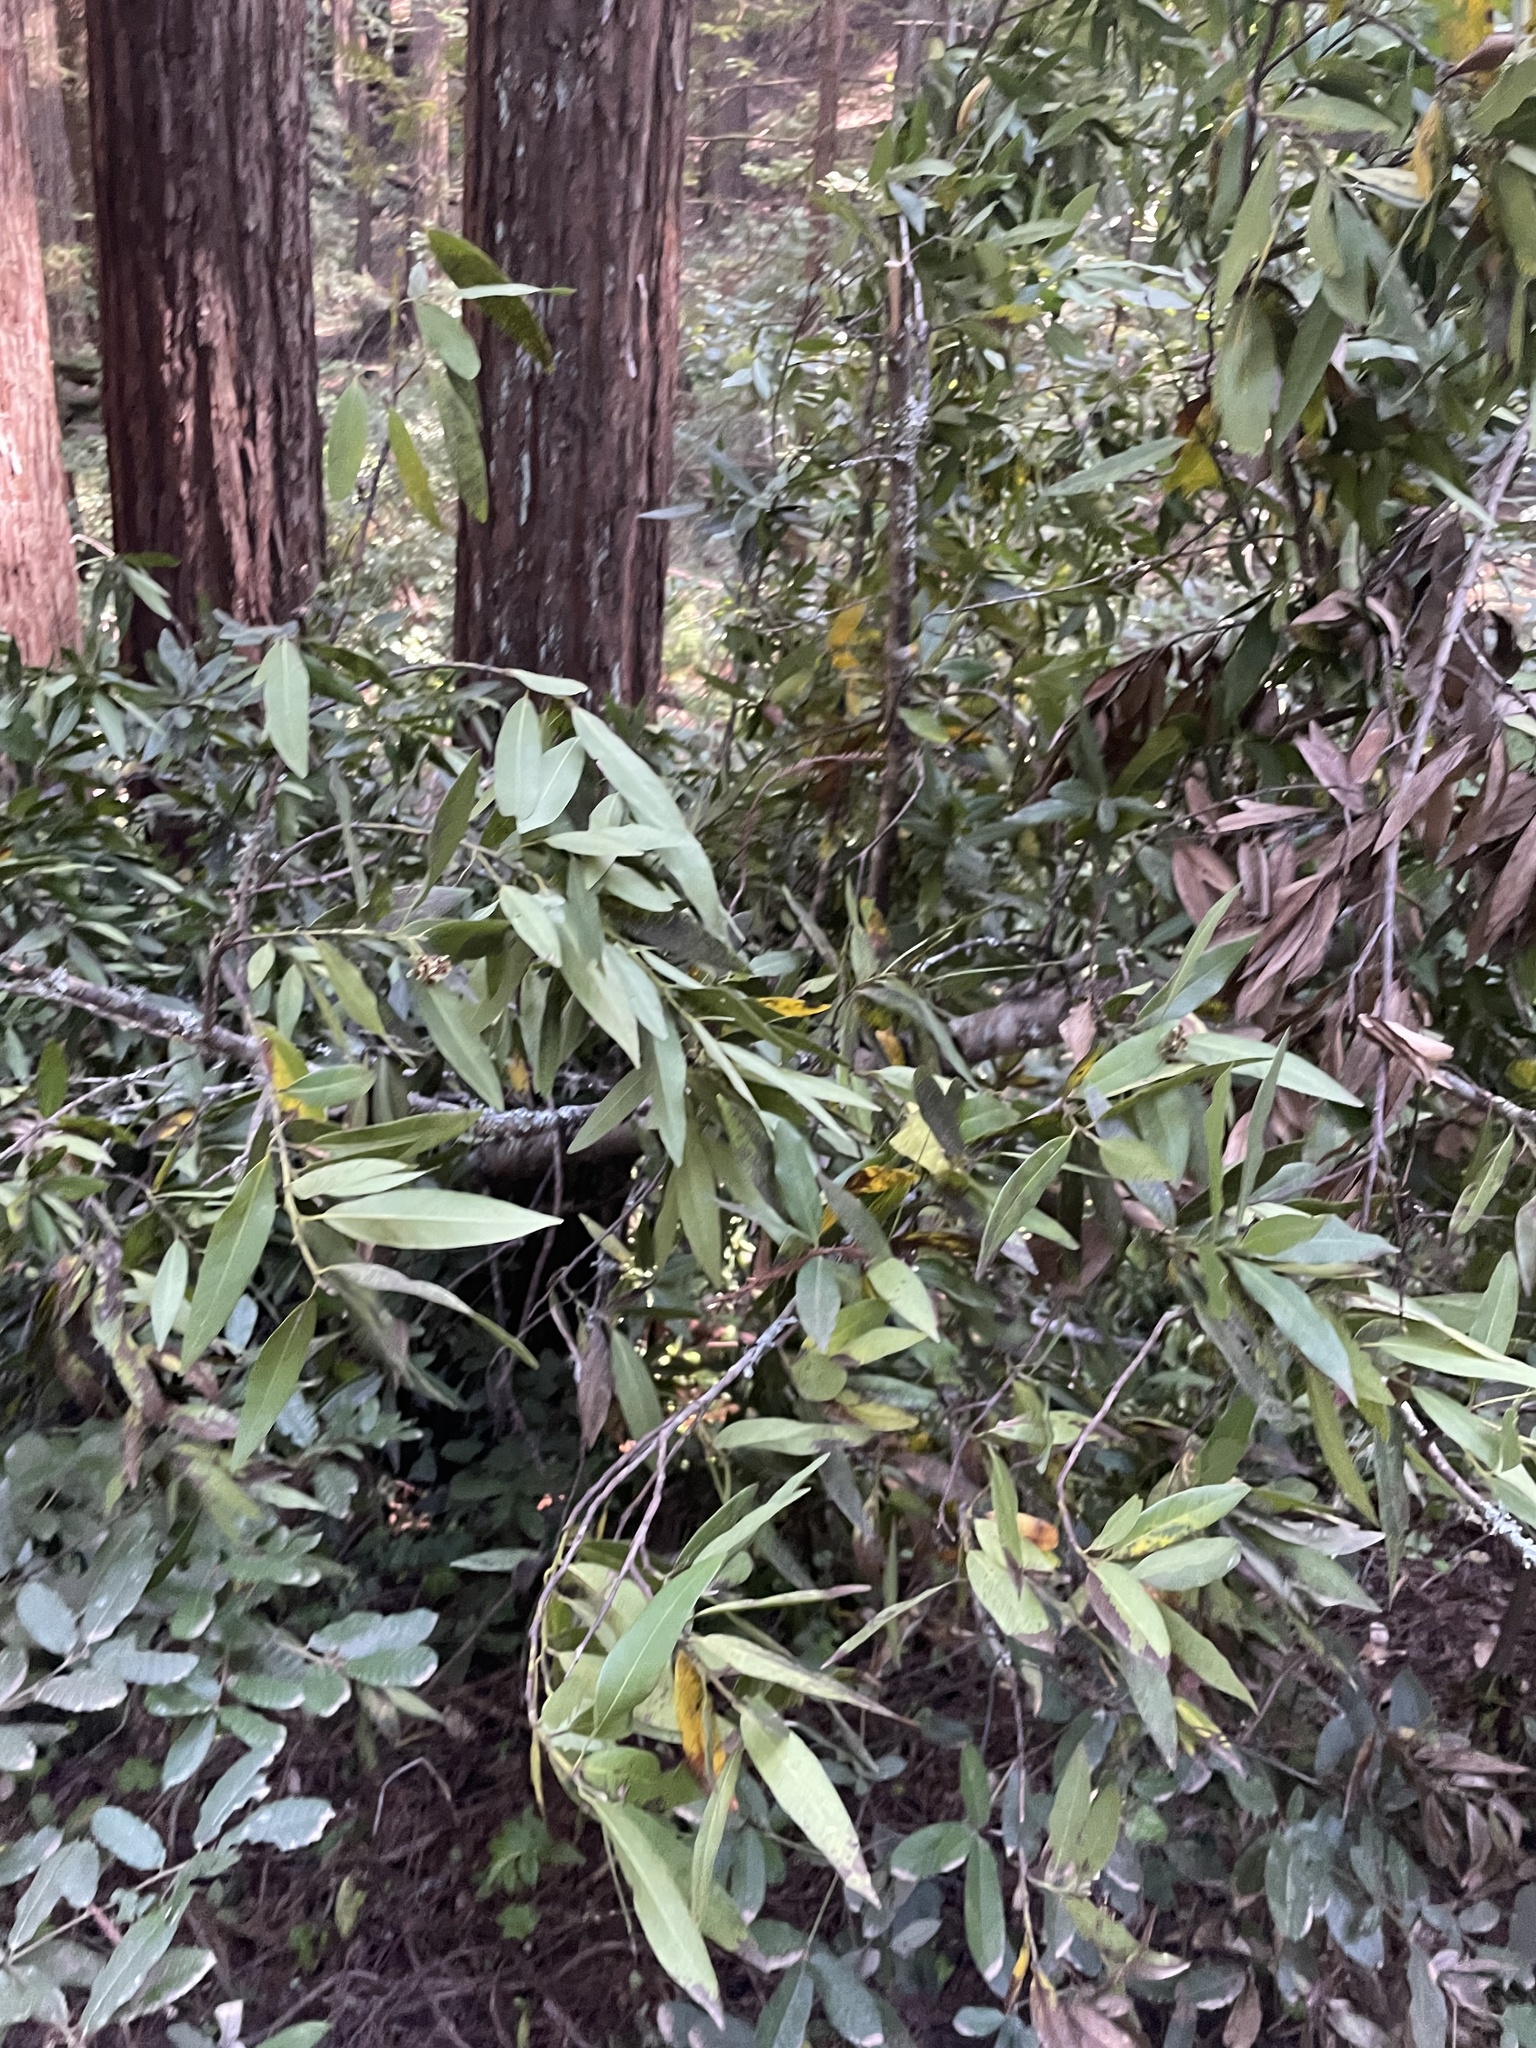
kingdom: Plantae
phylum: Tracheophyta
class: Magnoliopsida
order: Laurales
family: Lauraceae
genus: Umbellularia
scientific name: Umbellularia californica
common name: California bay
